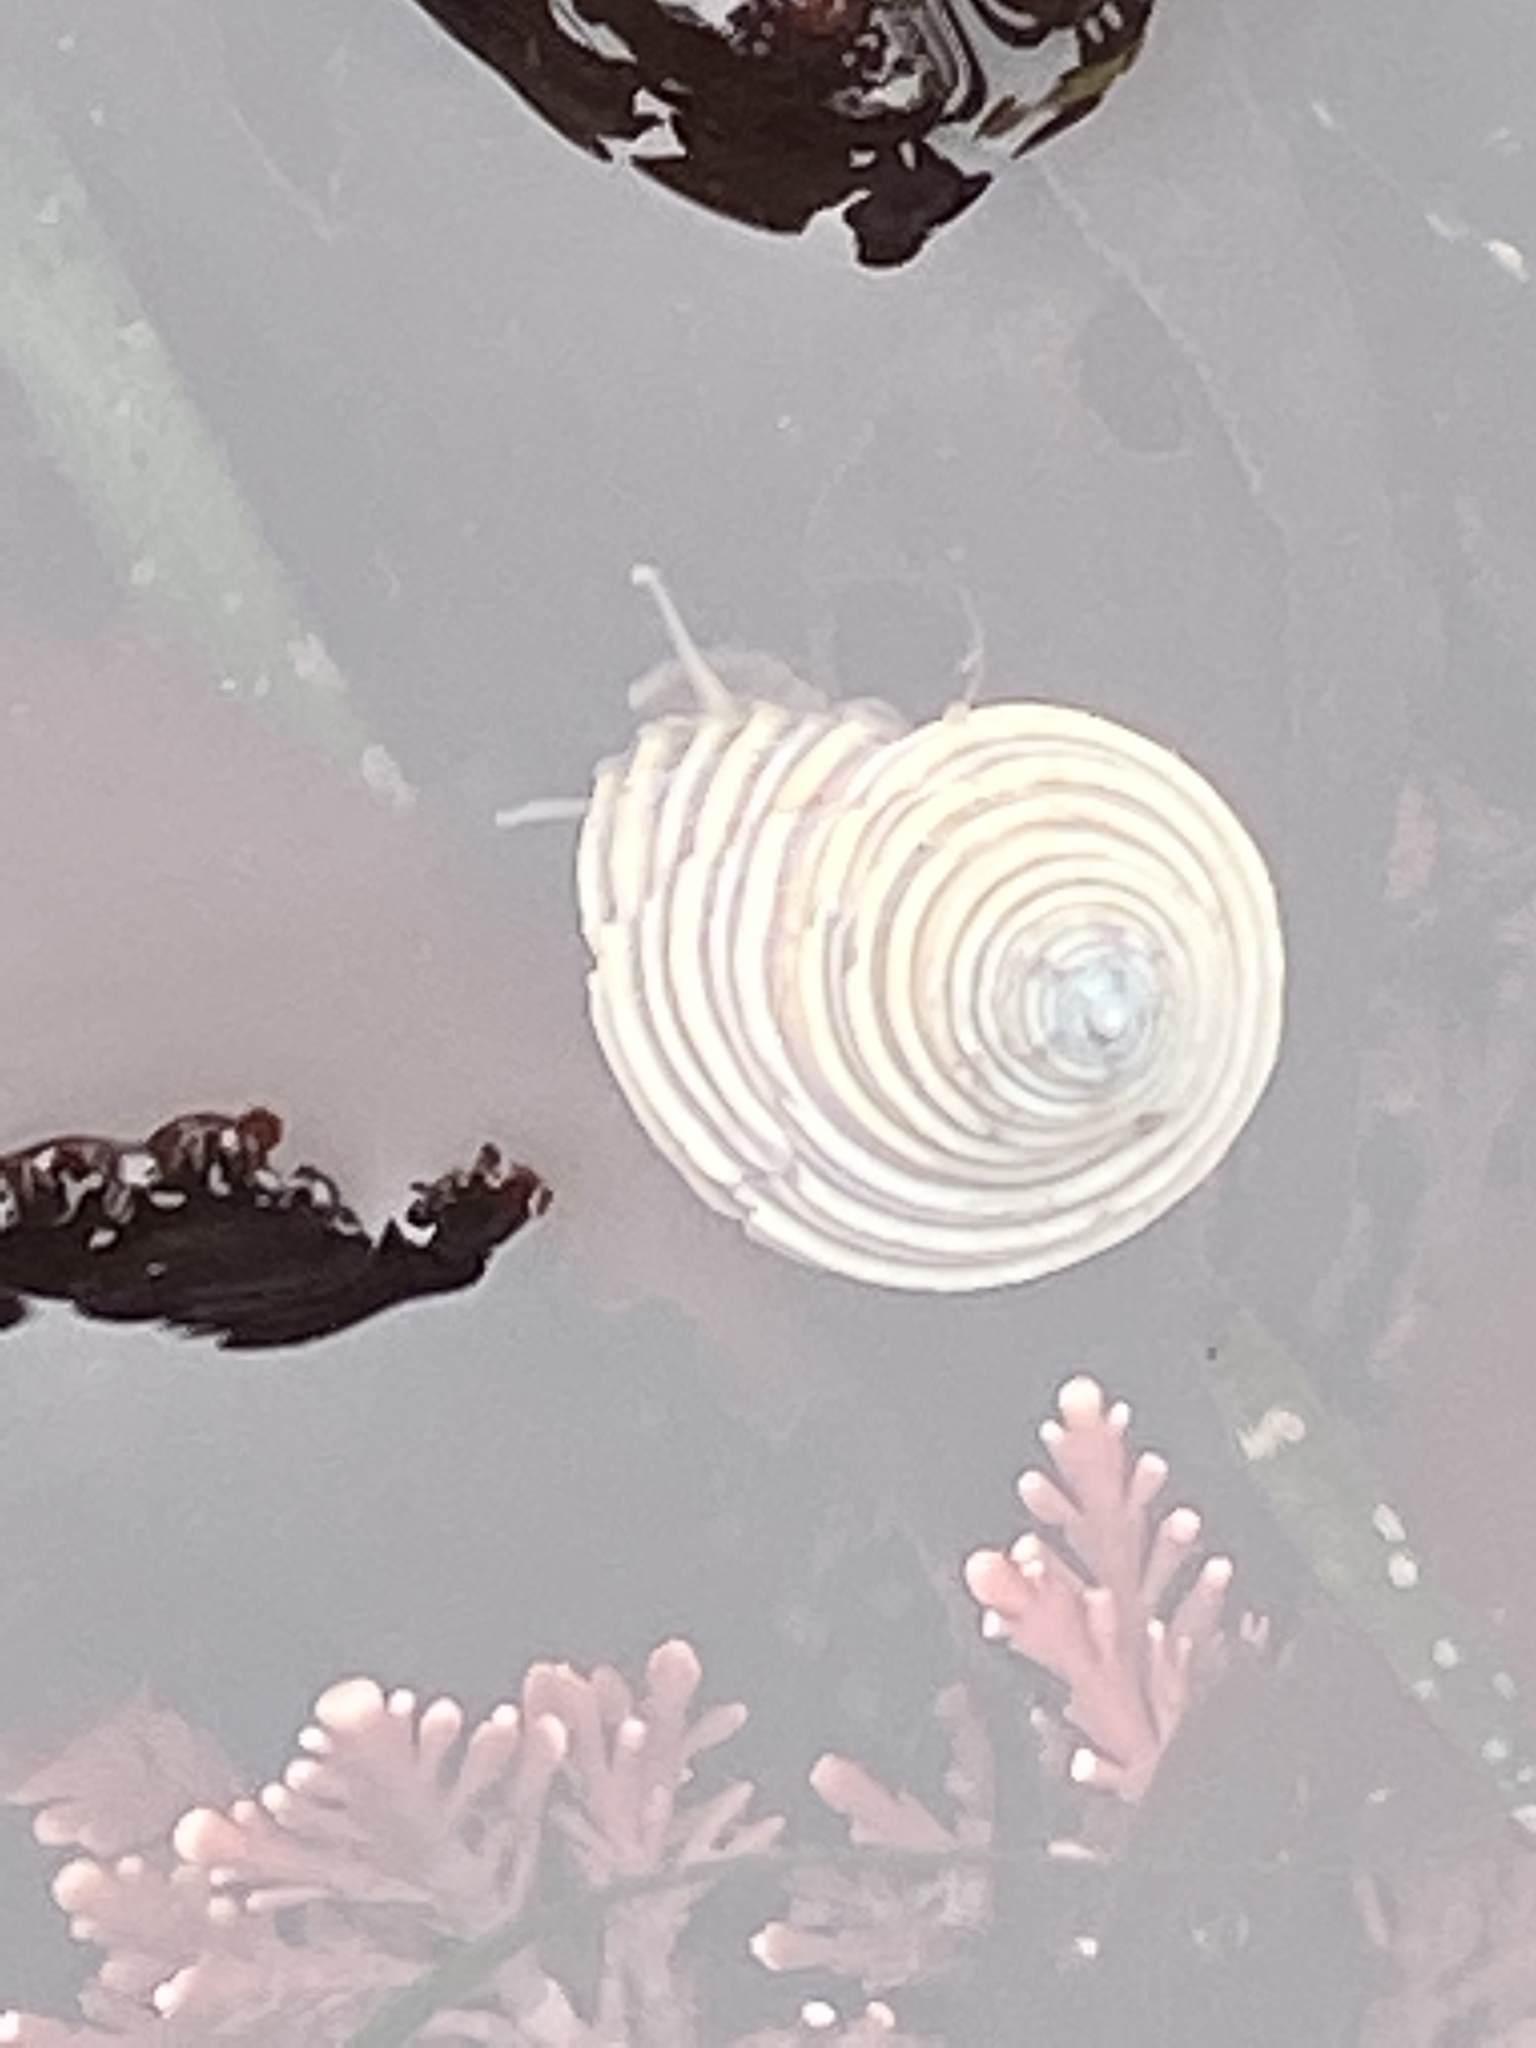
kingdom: Animalia
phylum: Mollusca
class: Gastropoda
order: Trochida
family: Calliostomatidae
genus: Calliostoma
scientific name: Calliostoma canaliculatum
